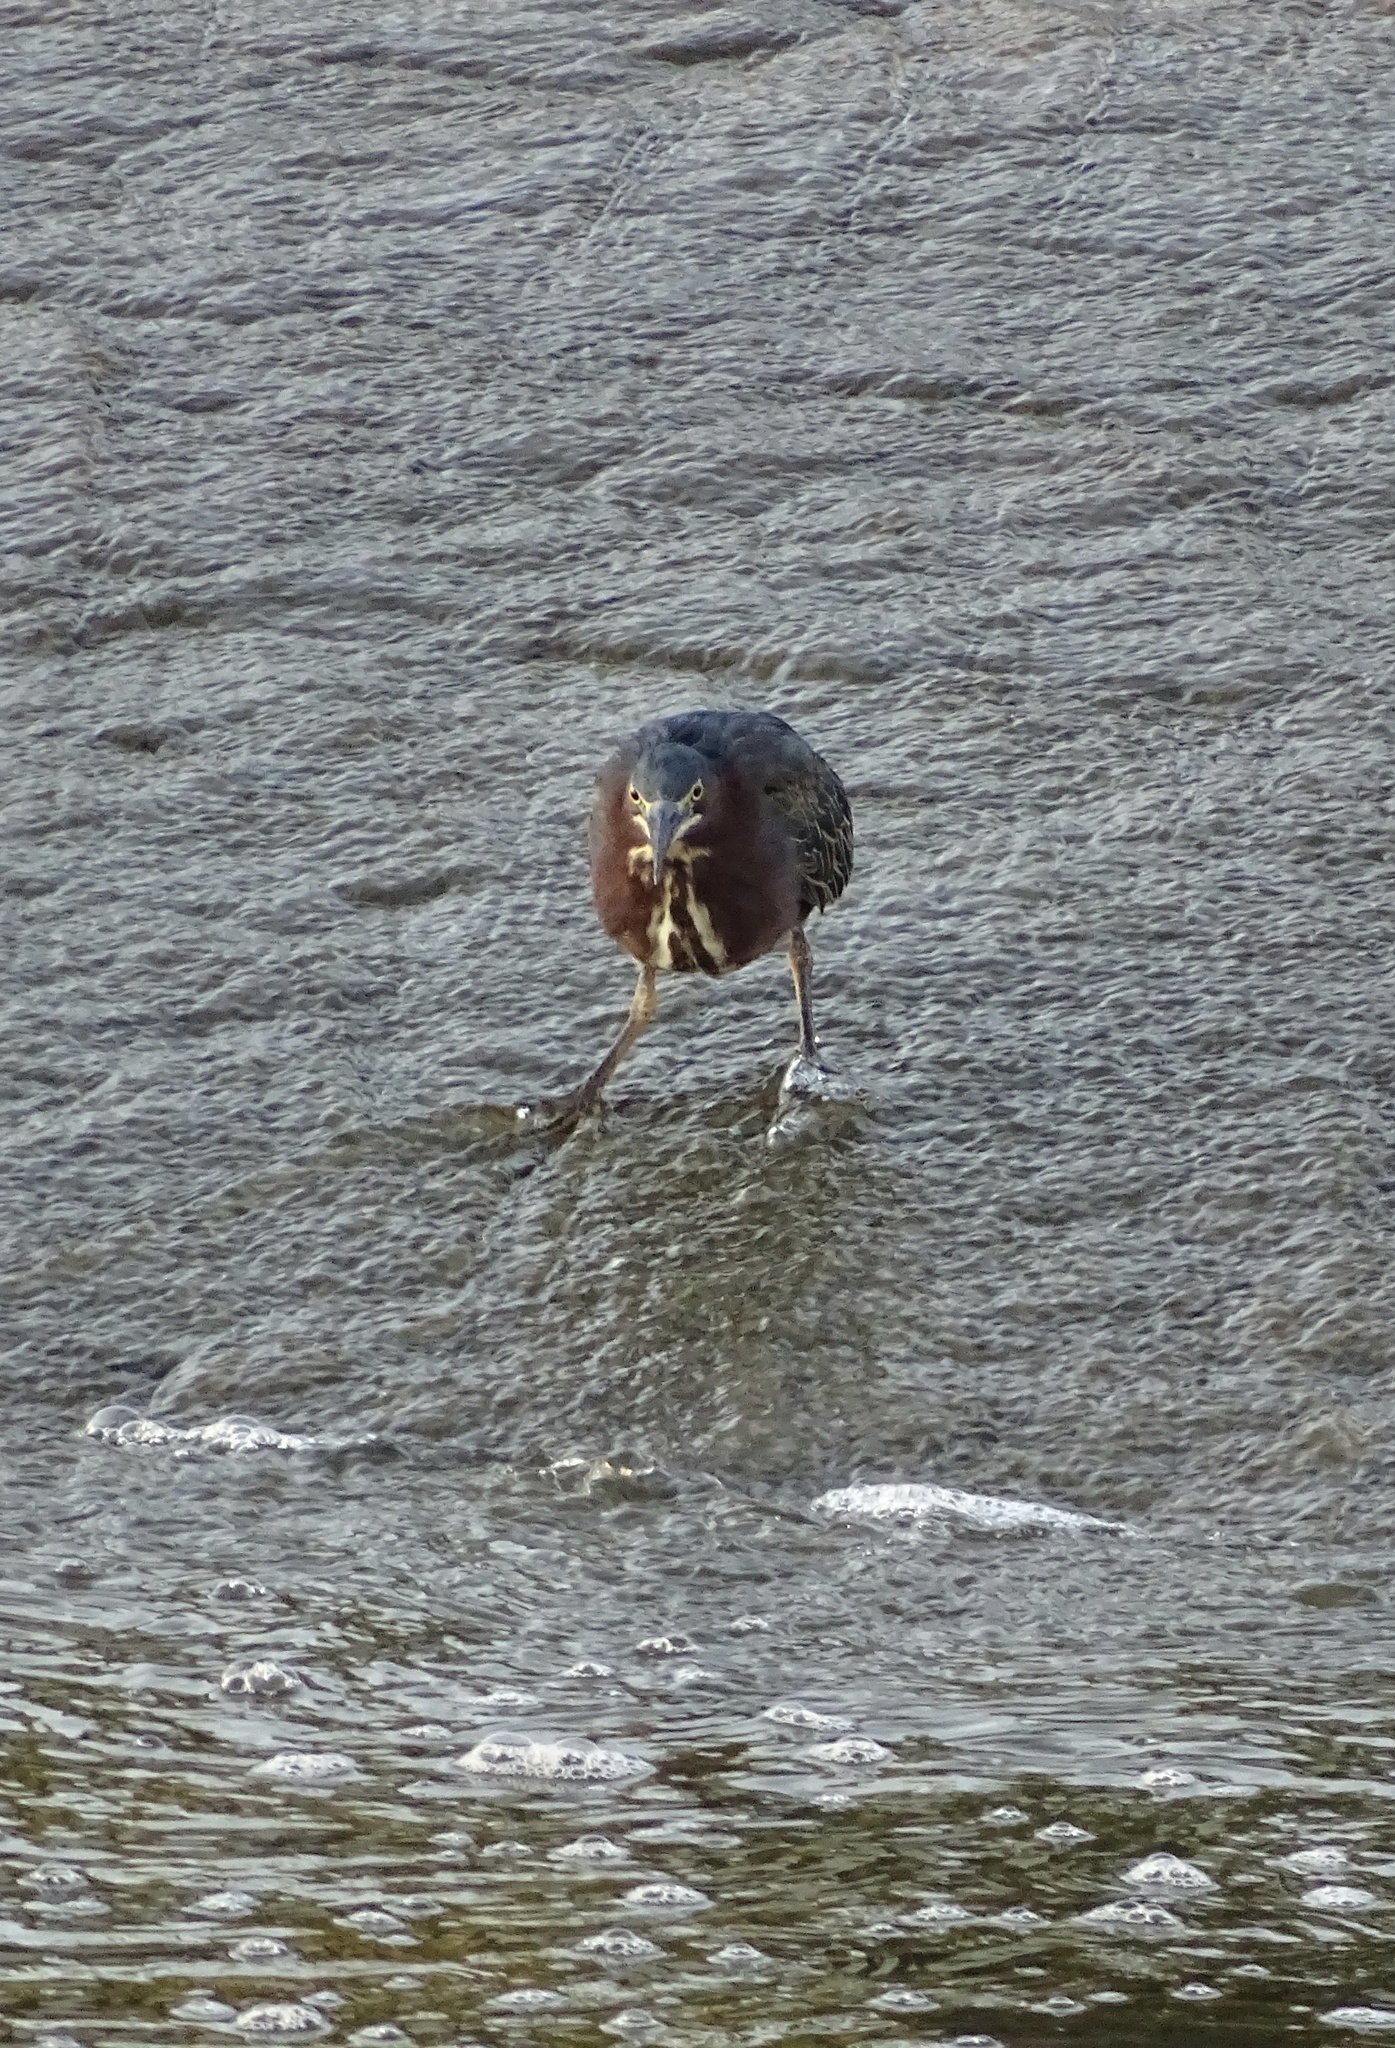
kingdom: Animalia
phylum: Chordata
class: Aves
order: Pelecaniformes
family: Ardeidae
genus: Butorides
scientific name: Butorides virescens
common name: Green heron
